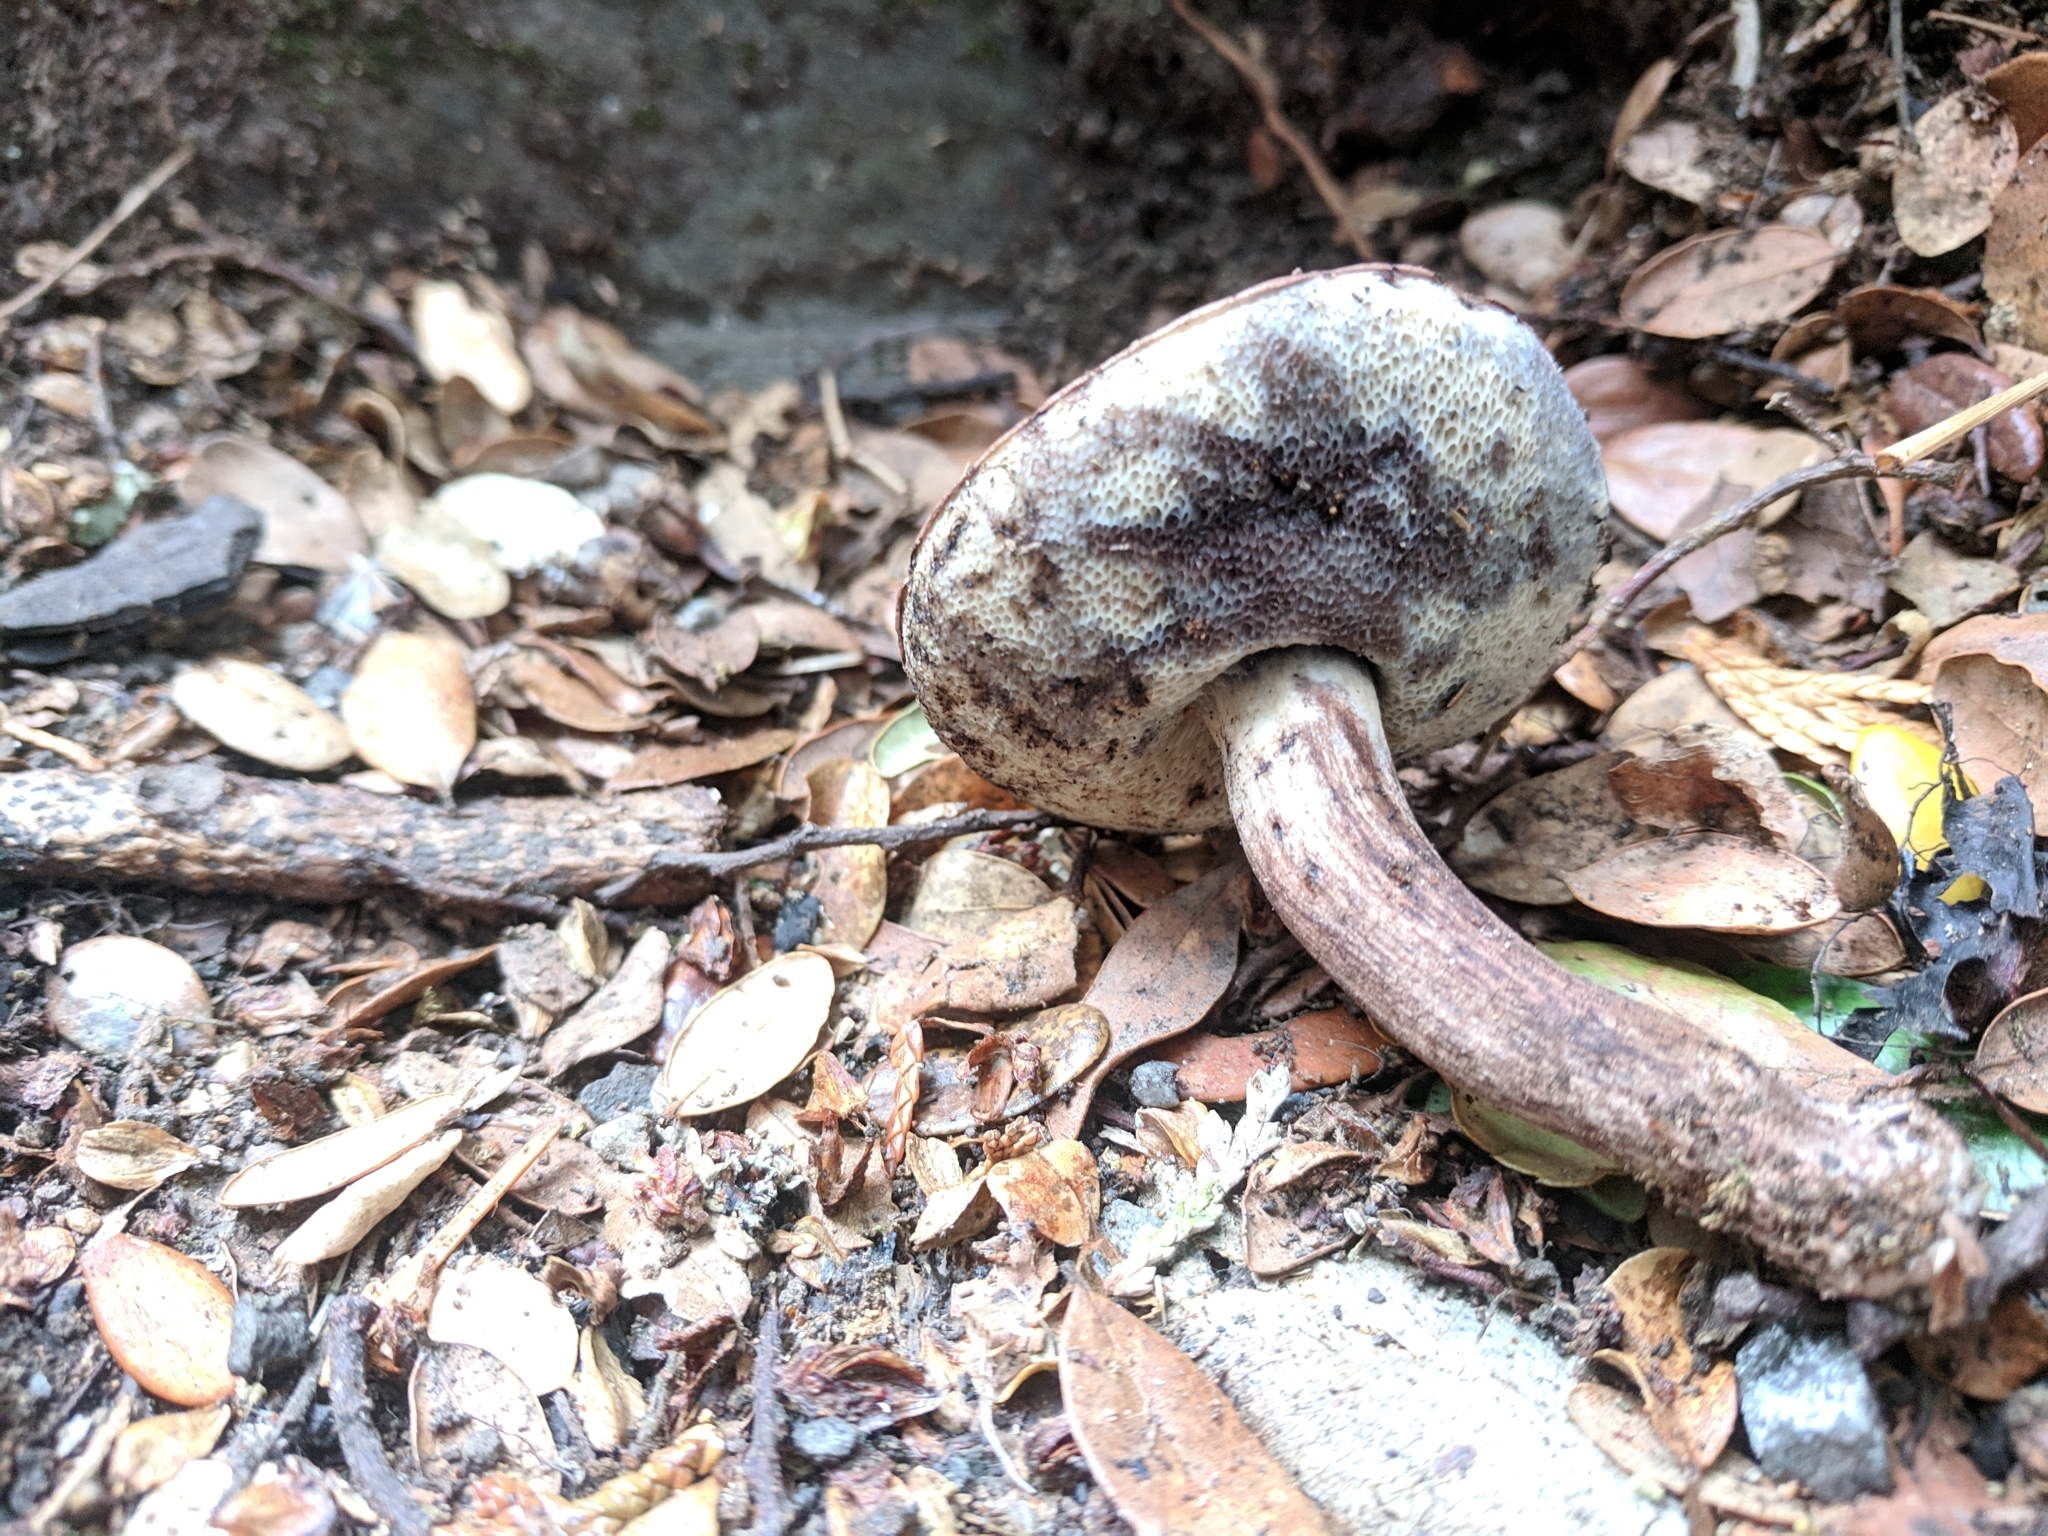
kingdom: Fungi
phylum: Basidiomycota
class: Agaricomycetes
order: Boletales
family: Boletaceae
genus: Porphyrellus
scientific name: Porphyrellus brunneus
